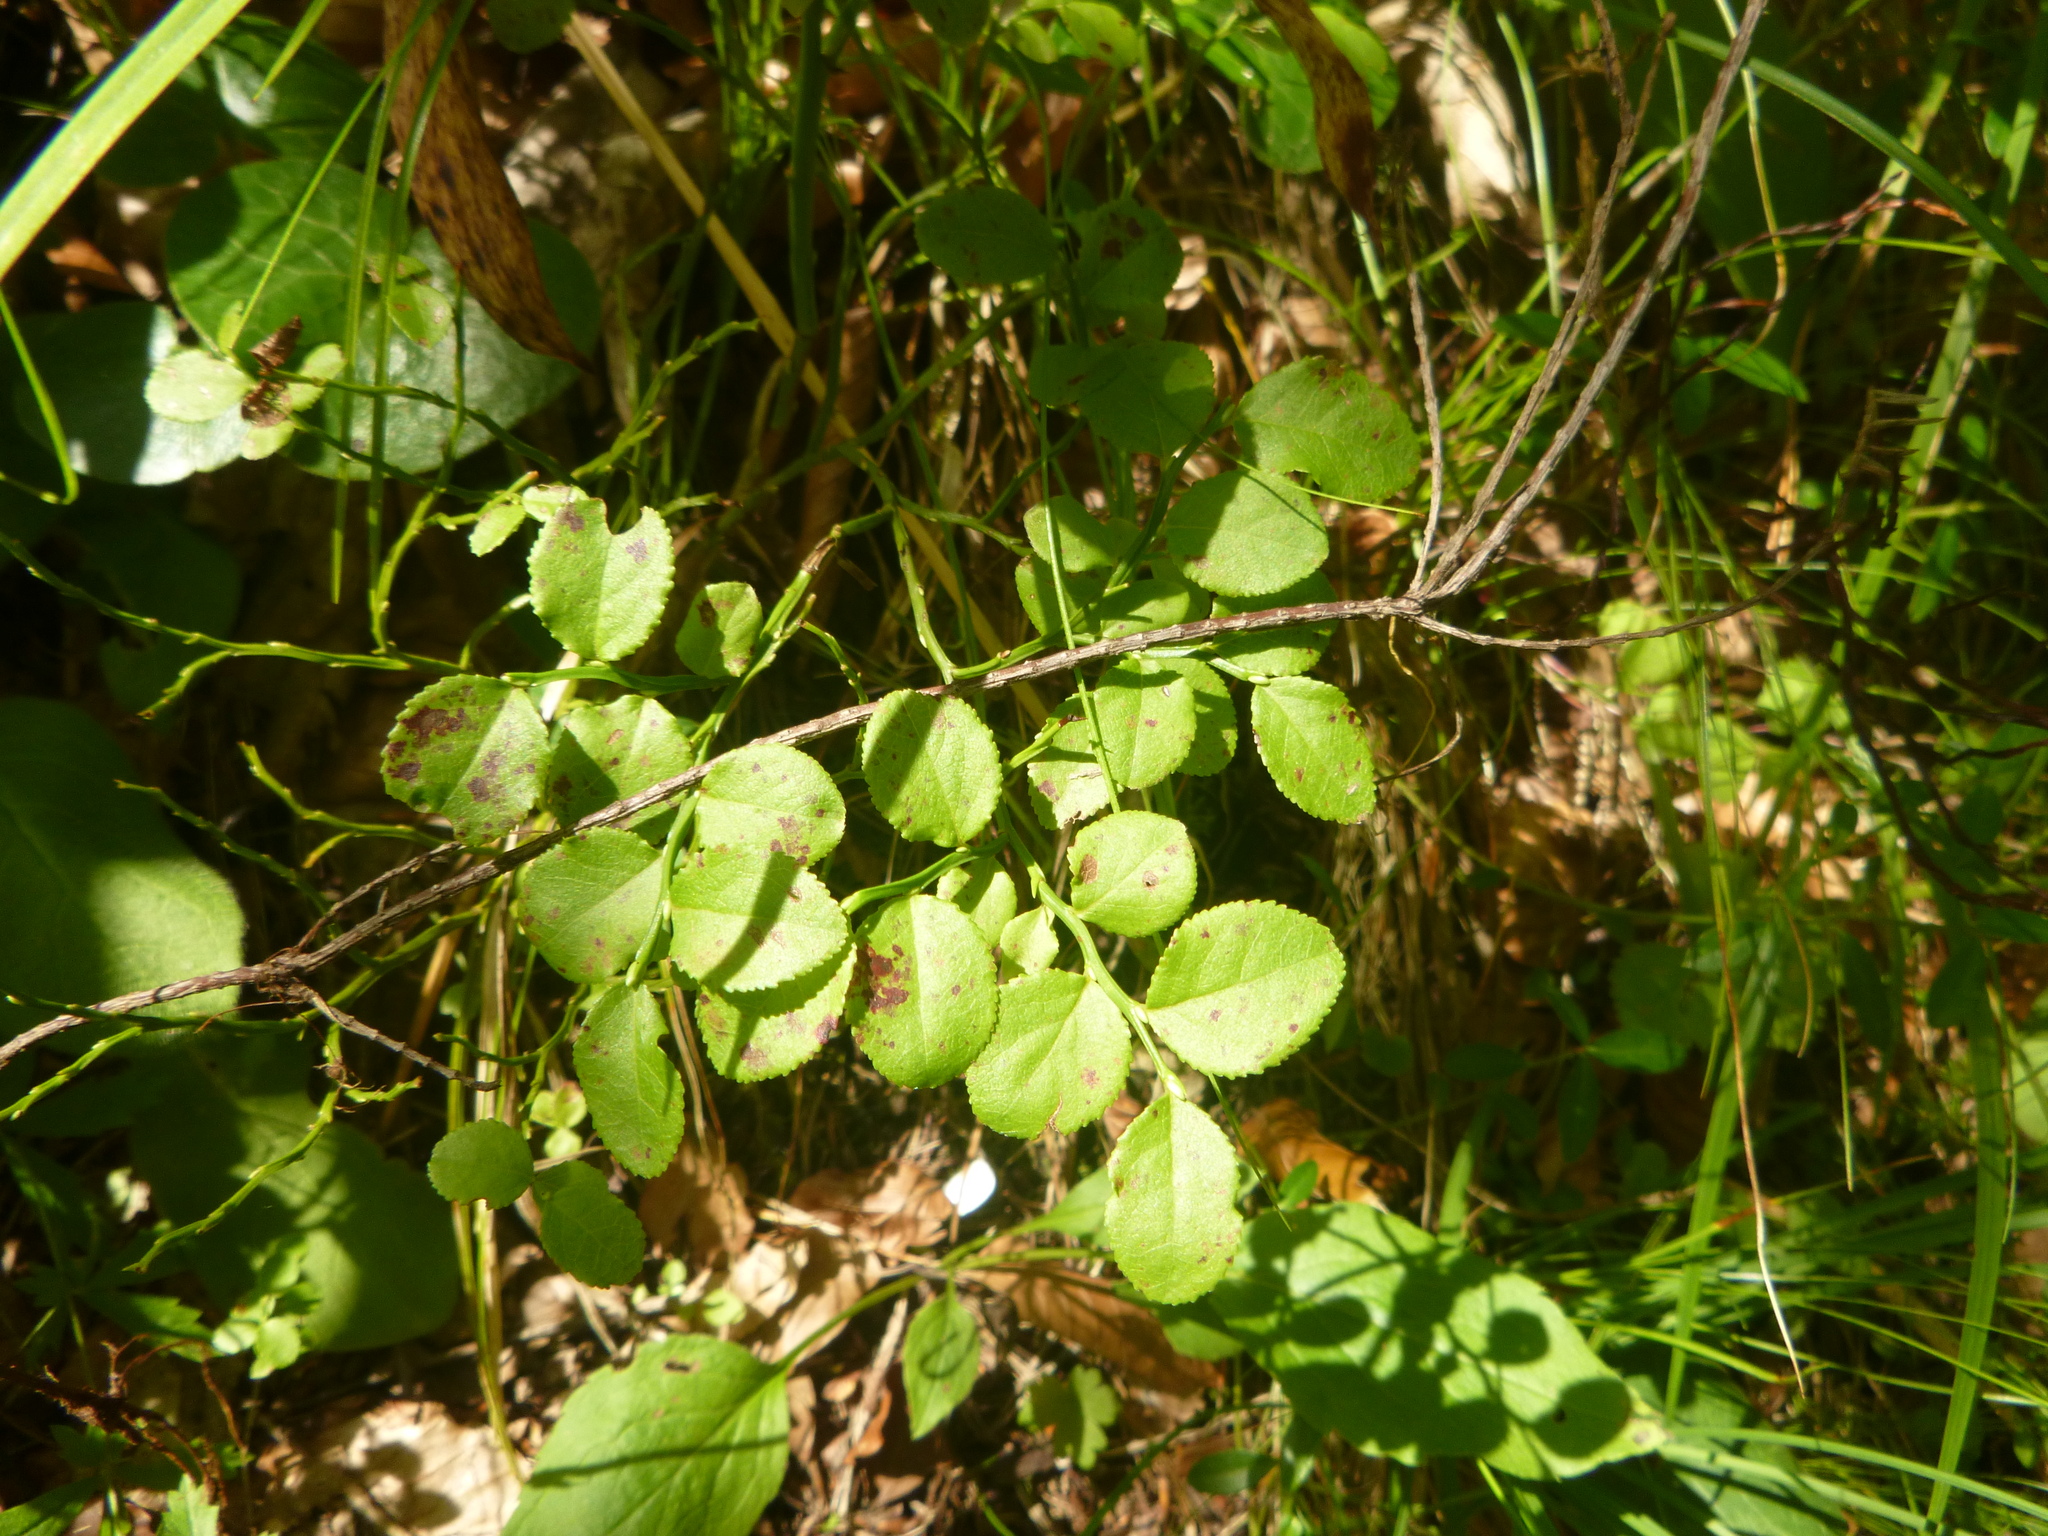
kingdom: Plantae
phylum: Tracheophyta
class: Magnoliopsida
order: Ericales
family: Ericaceae
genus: Vaccinium
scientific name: Vaccinium myrtillus
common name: Bilberry
